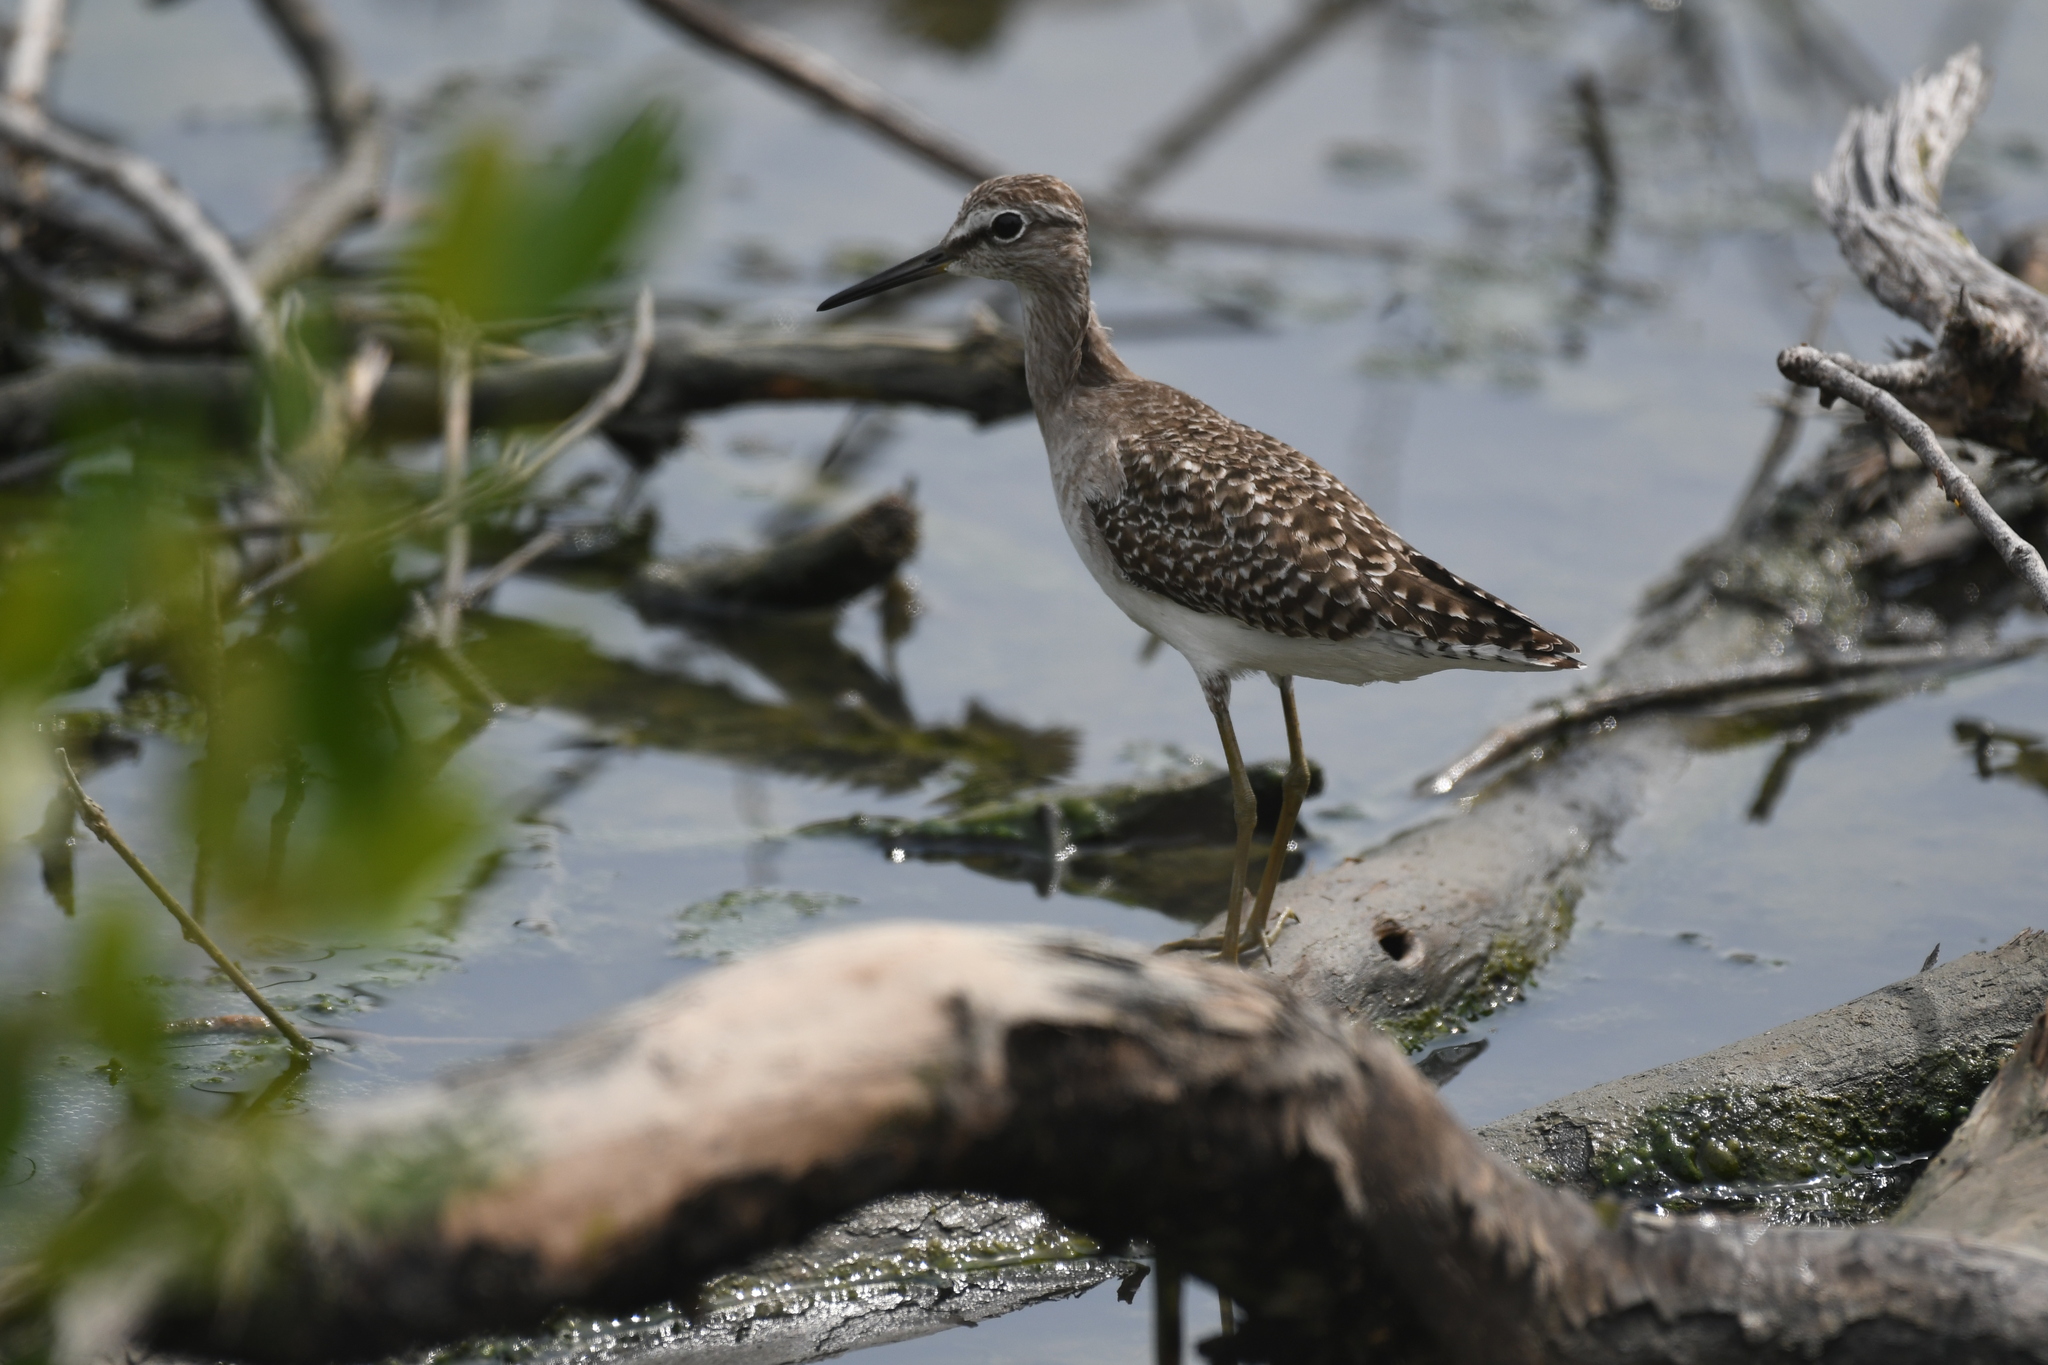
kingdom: Animalia
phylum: Chordata
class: Aves
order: Charadriiformes
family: Scolopacidae
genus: Tringa
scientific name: Tringa glareola
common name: Wood sandpiper
